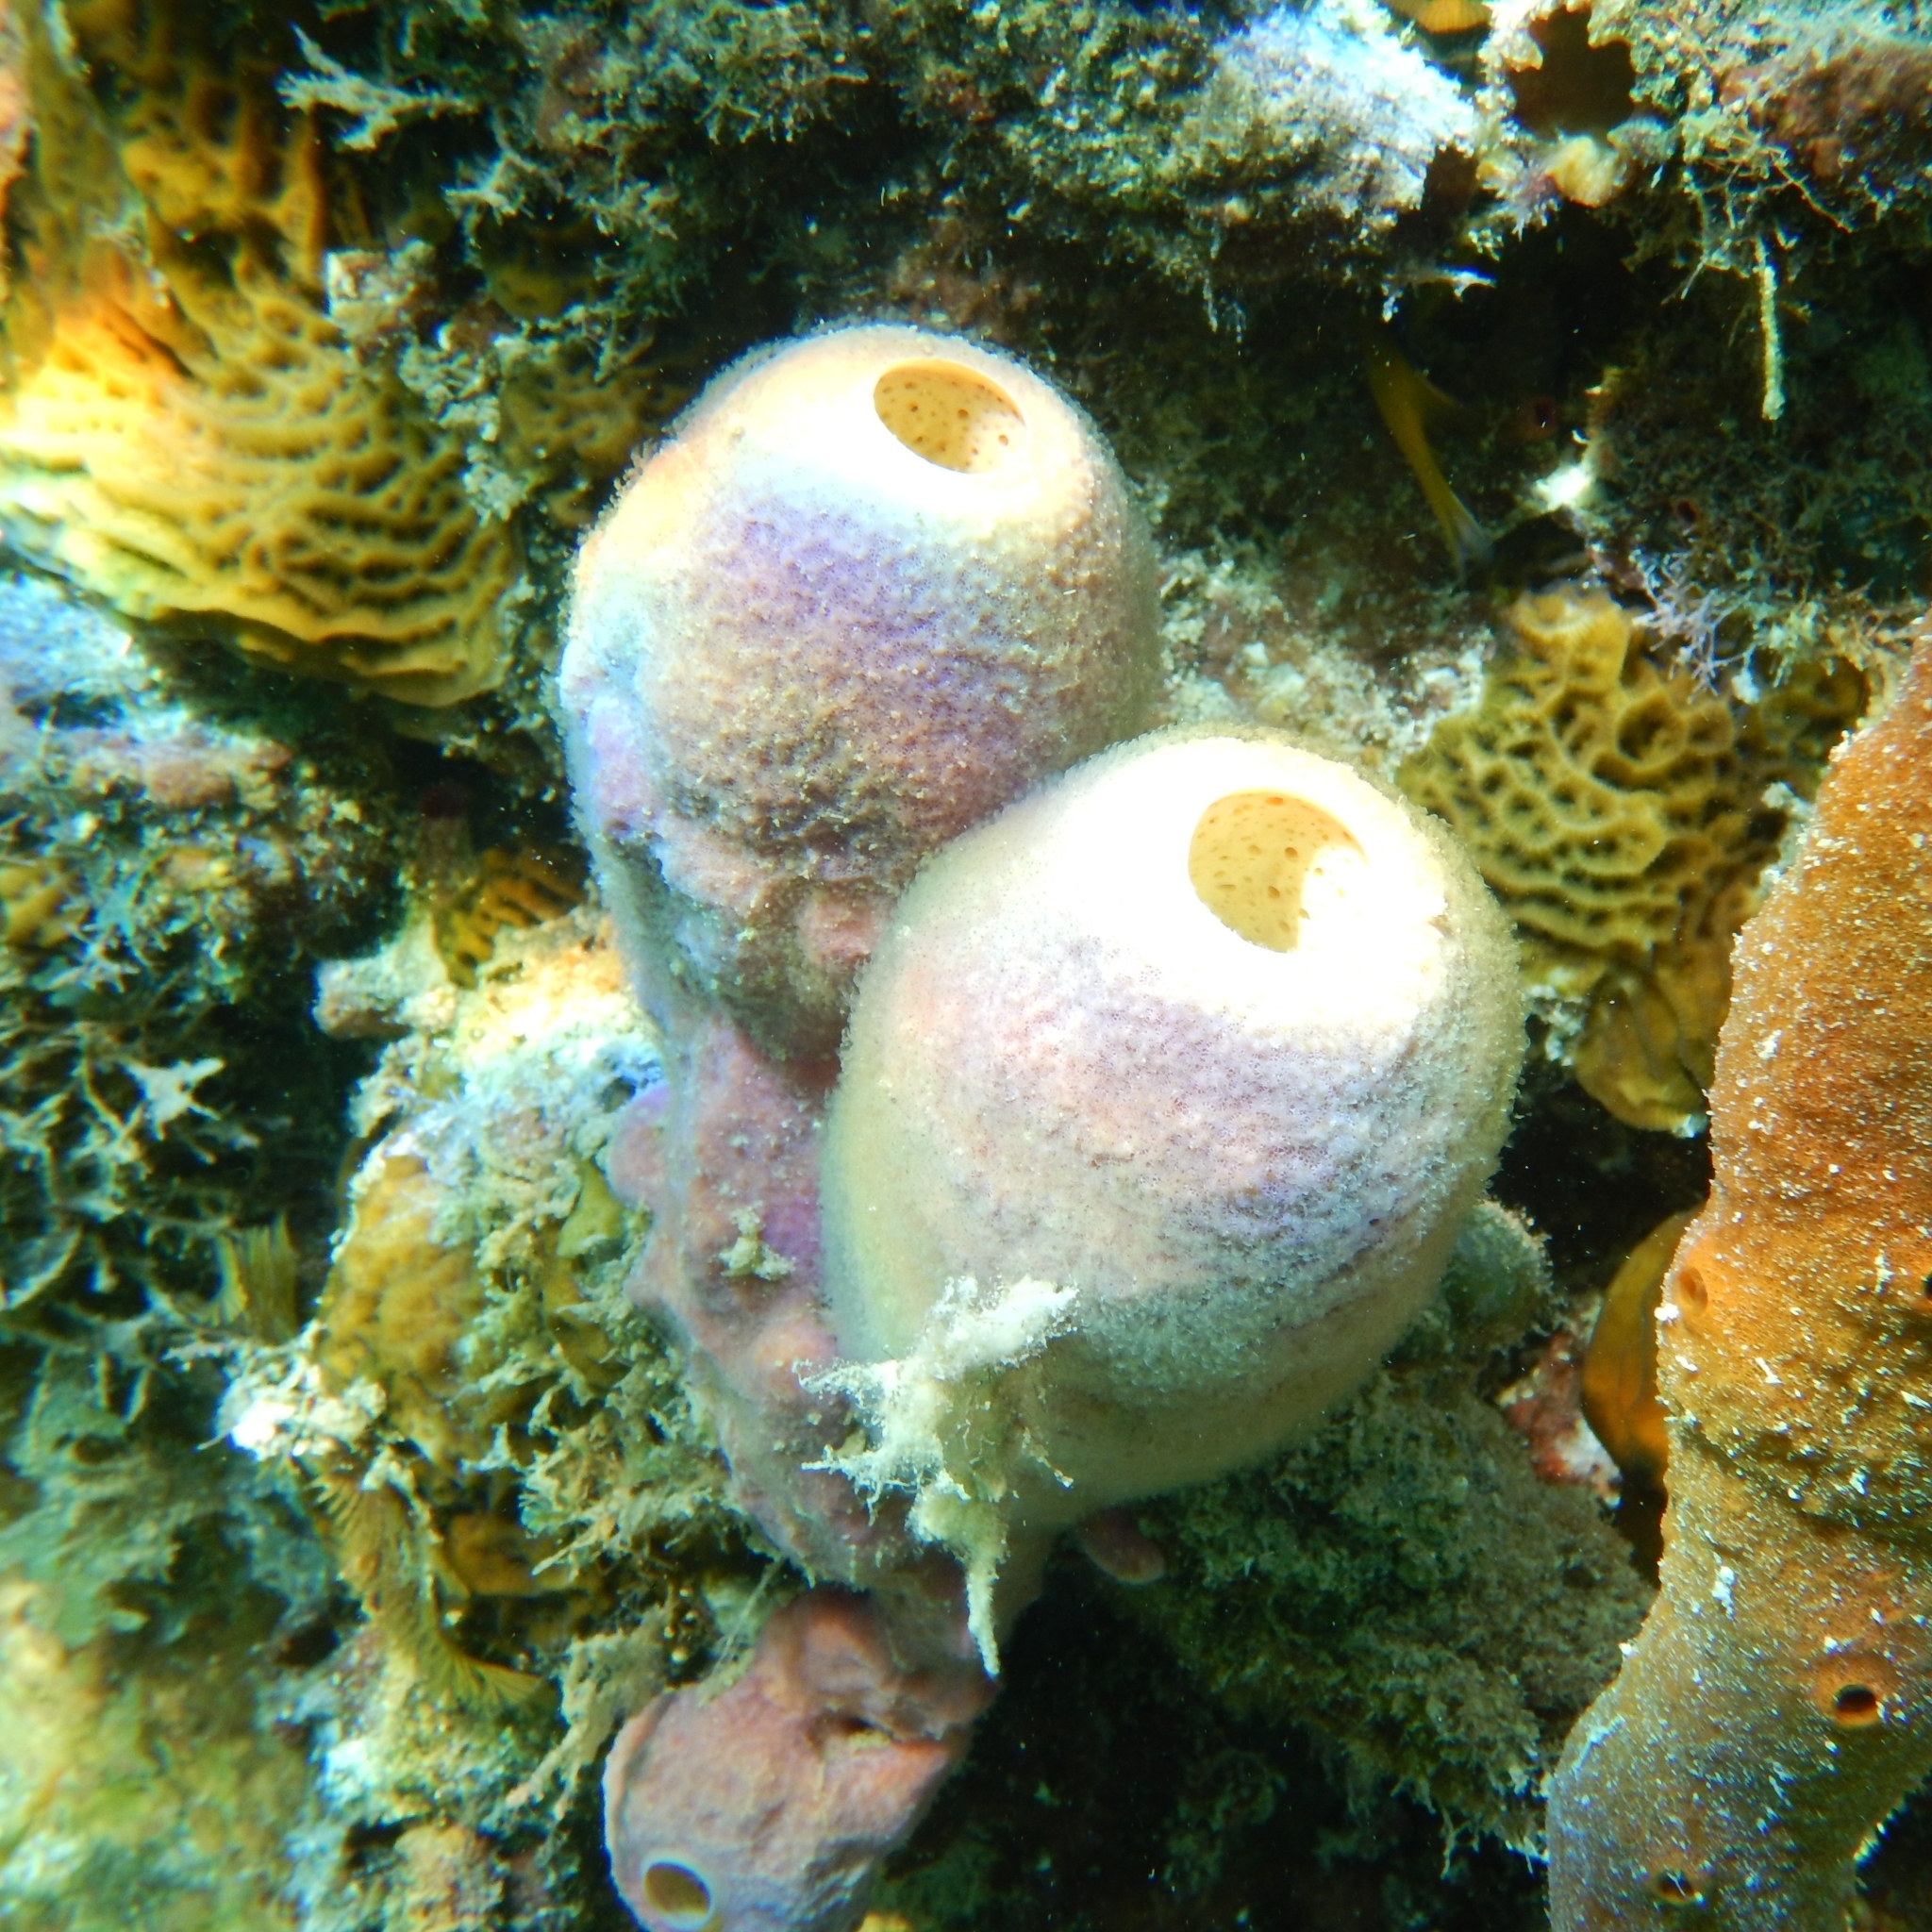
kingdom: Animalia
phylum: Porifera
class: Demospongiae
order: Verongiida
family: Aplysinidae
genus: Aplysina
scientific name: Aplysina archeri
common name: Stove-pipe sponge
